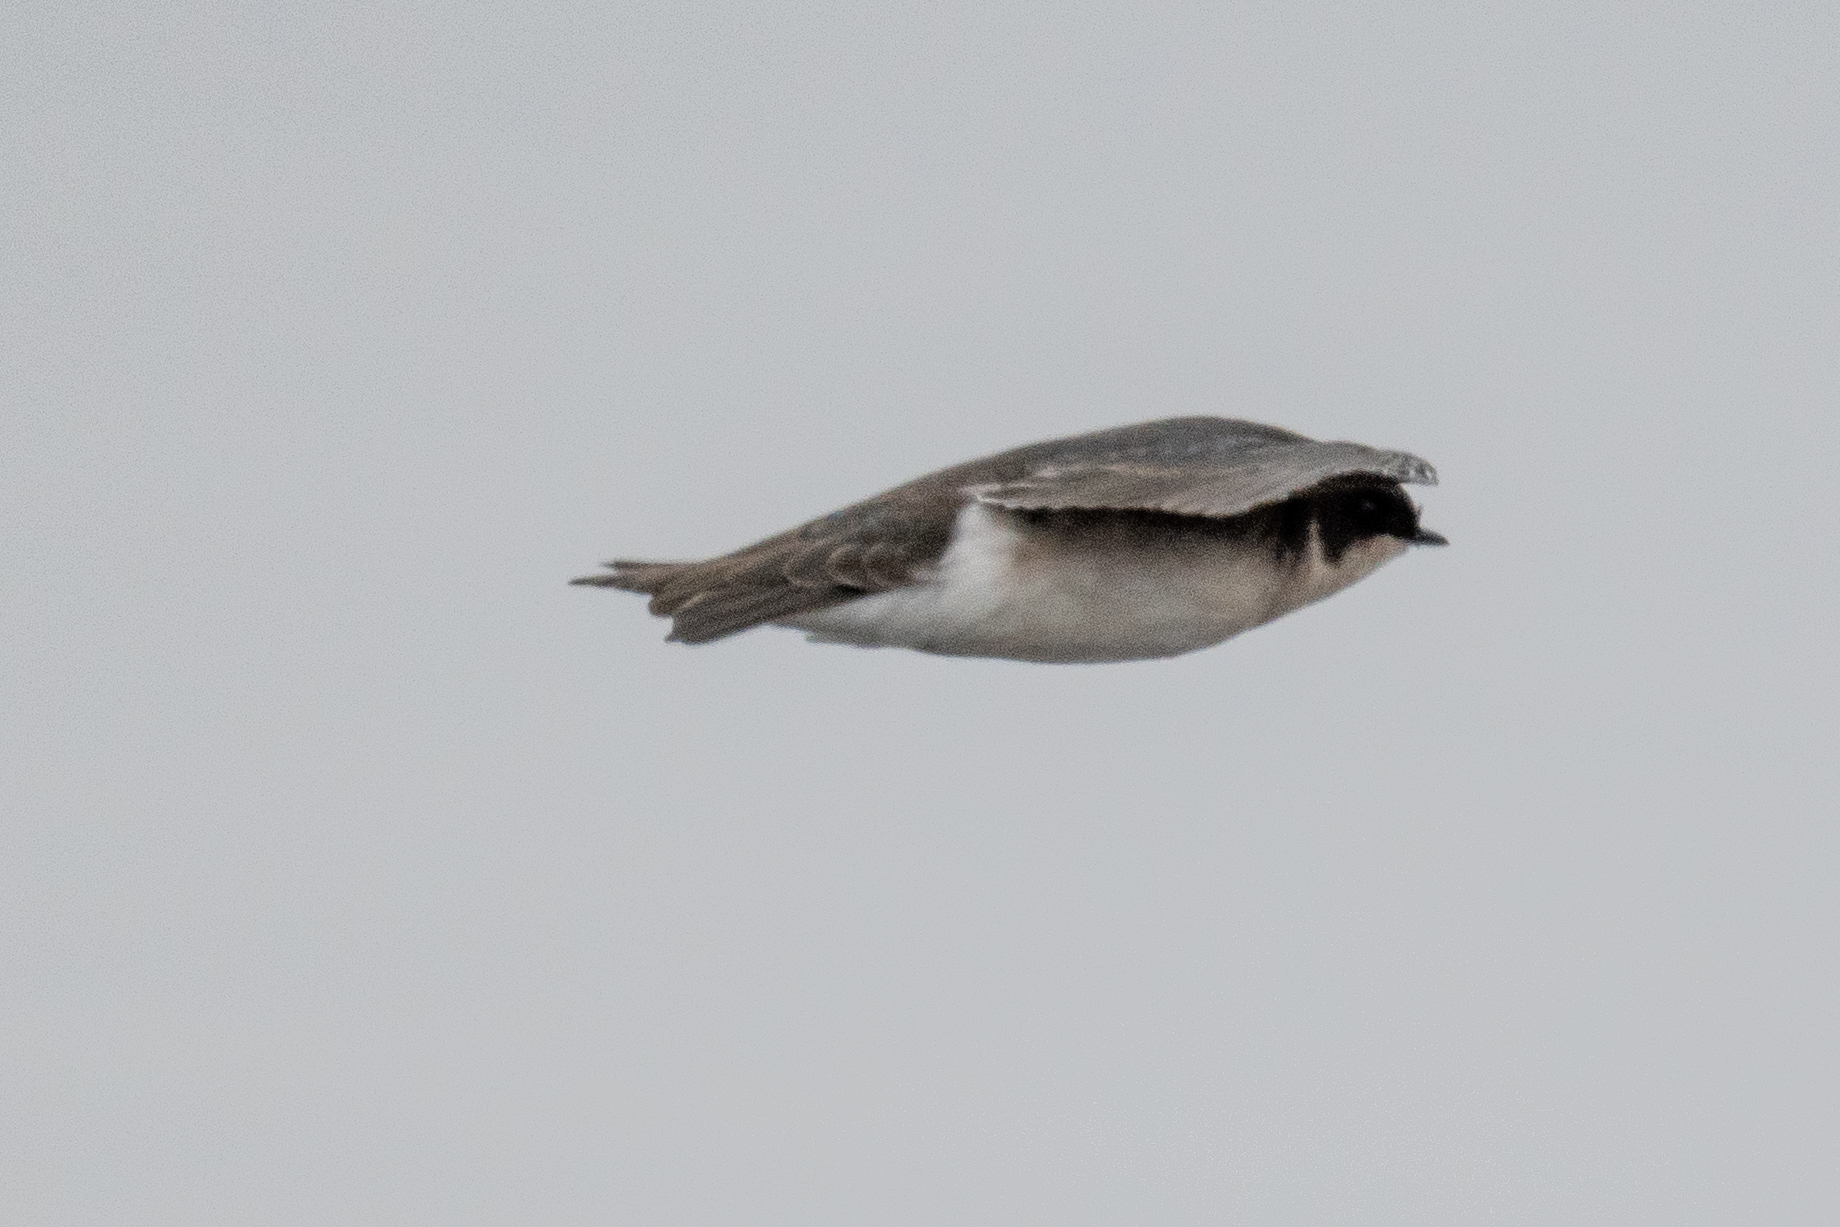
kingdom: Animalia
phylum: Chordata
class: Aves
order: Passeriformes
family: Hirundinidae
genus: Tachycineta
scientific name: Tachycineta bicolor
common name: Tree swallow
